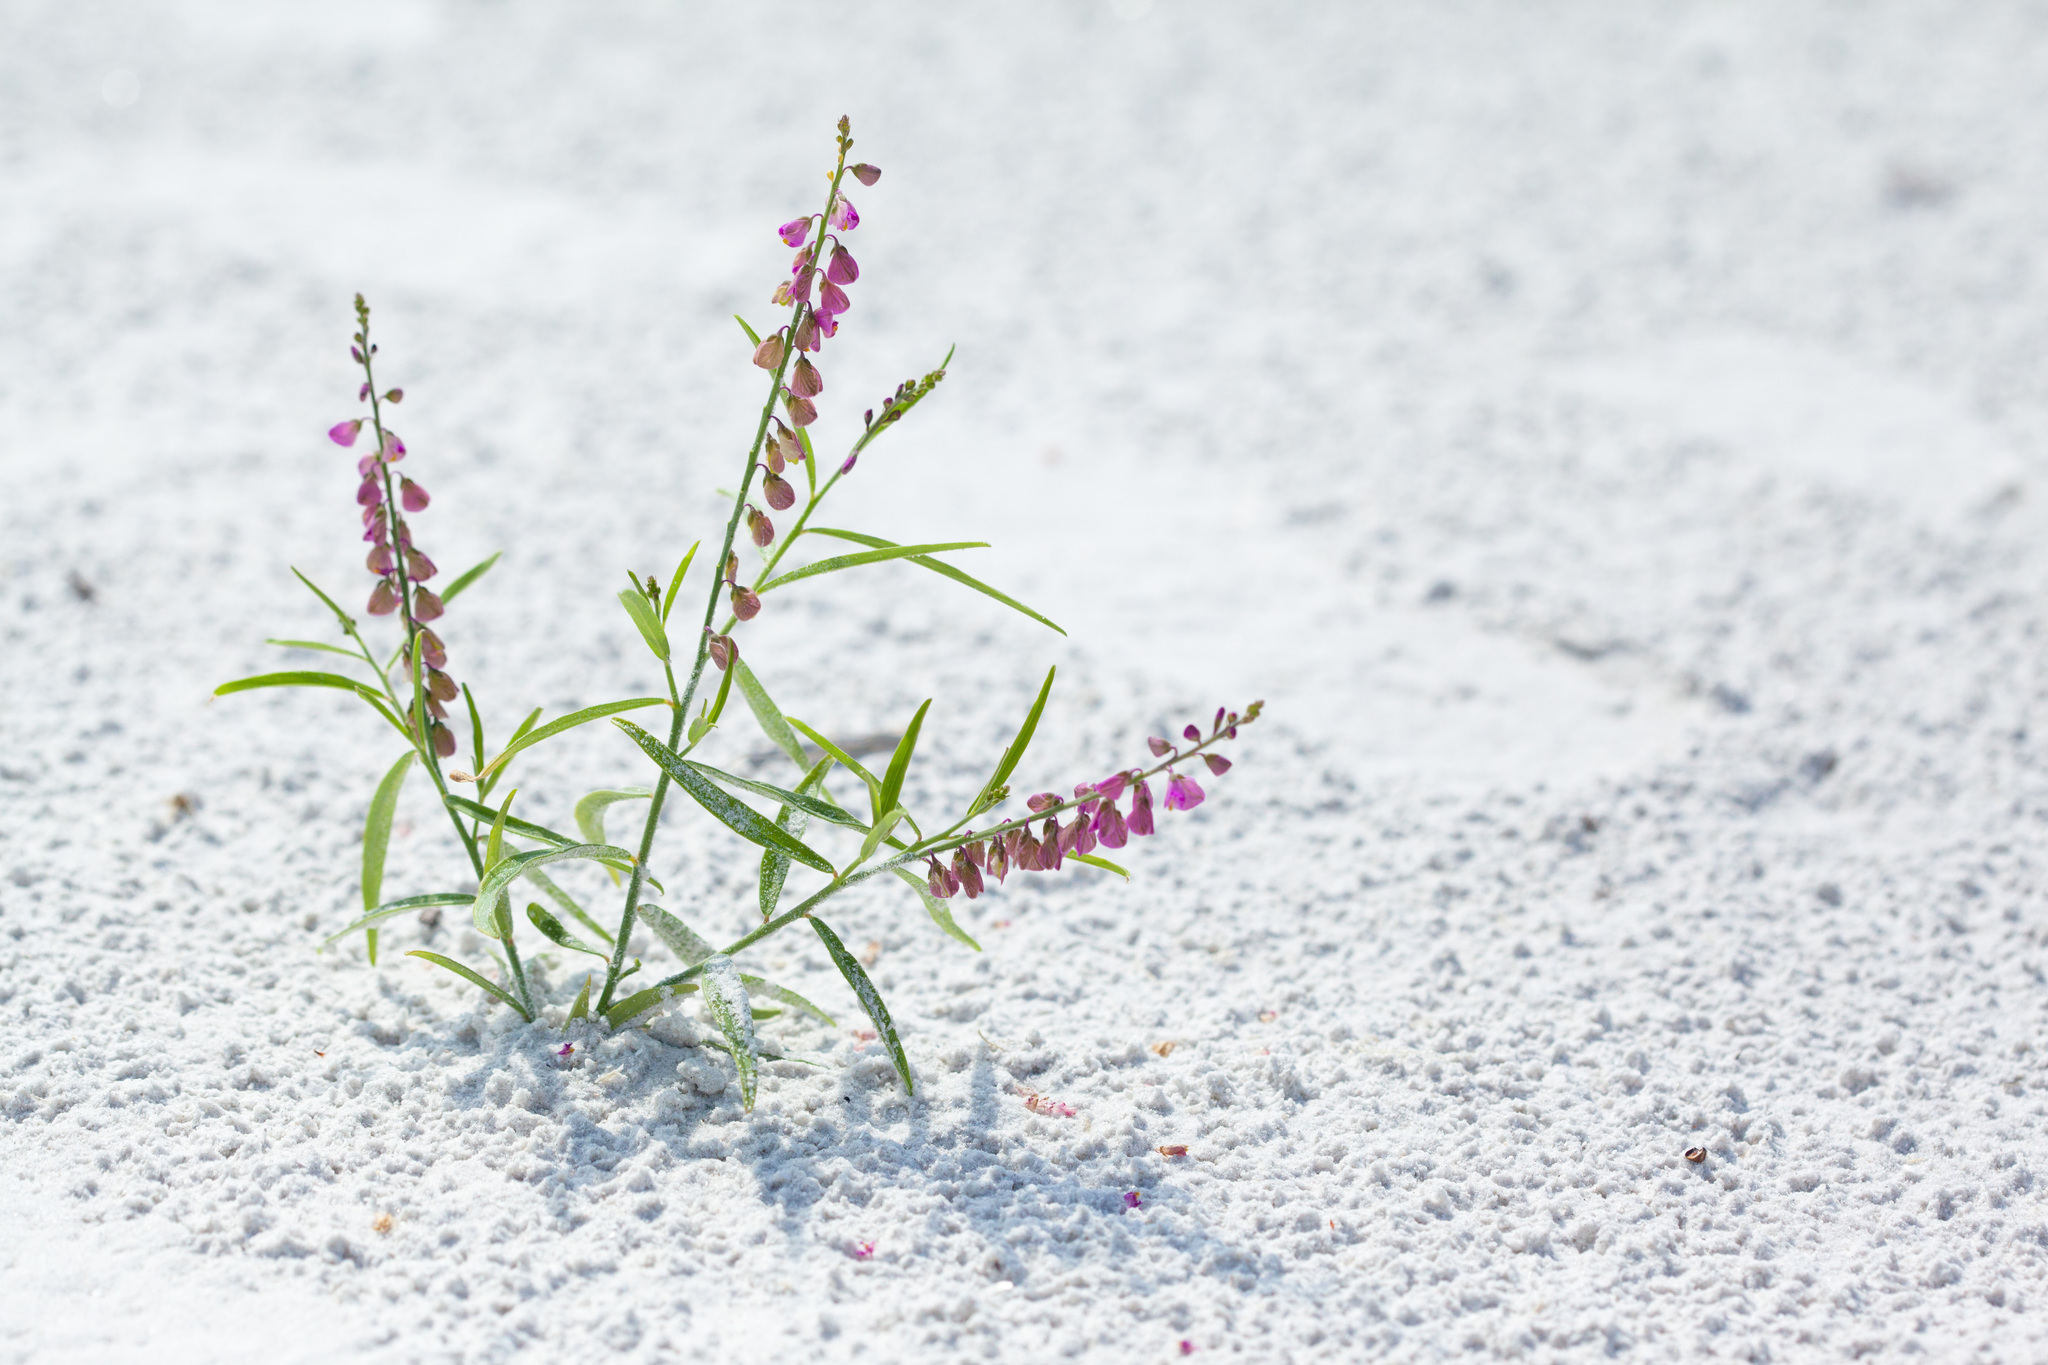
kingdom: Plantae
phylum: Tracheophyta
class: Magnoliopsida
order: Fabales
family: Polygalaceae
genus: Asemeia
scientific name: Asemeia grandiflora
